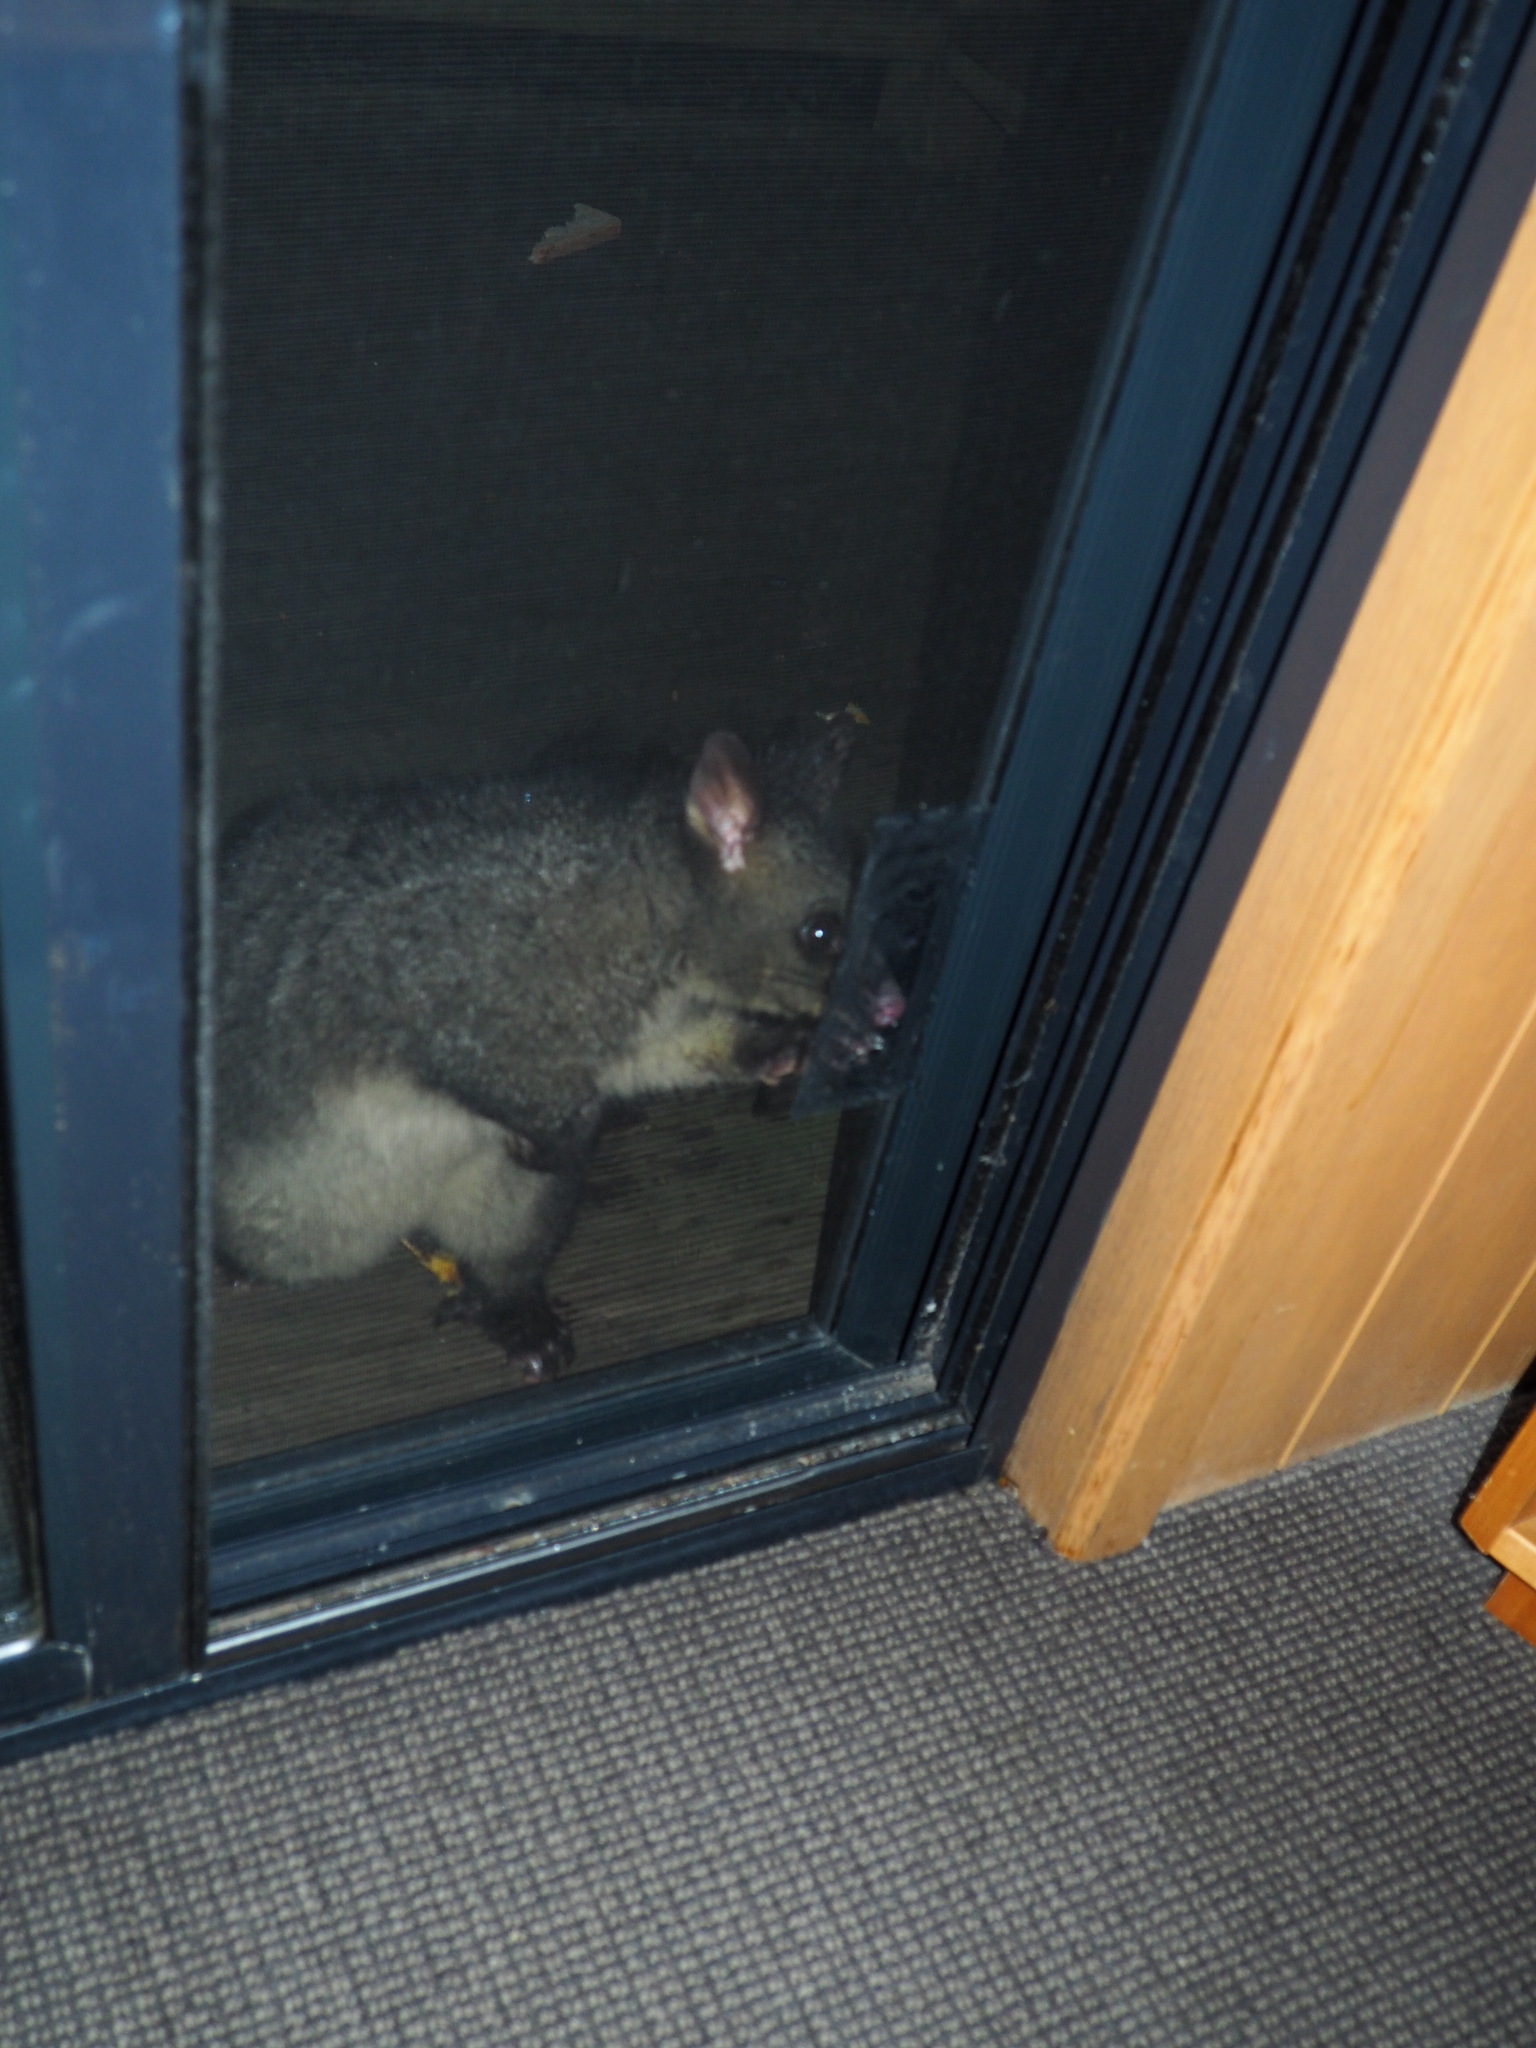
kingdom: Animalia
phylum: Chordata
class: Mammalia
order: Diprotodontia
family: Phalangeridae
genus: Trichosurus
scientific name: Trichosurus vulpecula
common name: Common brushtail
